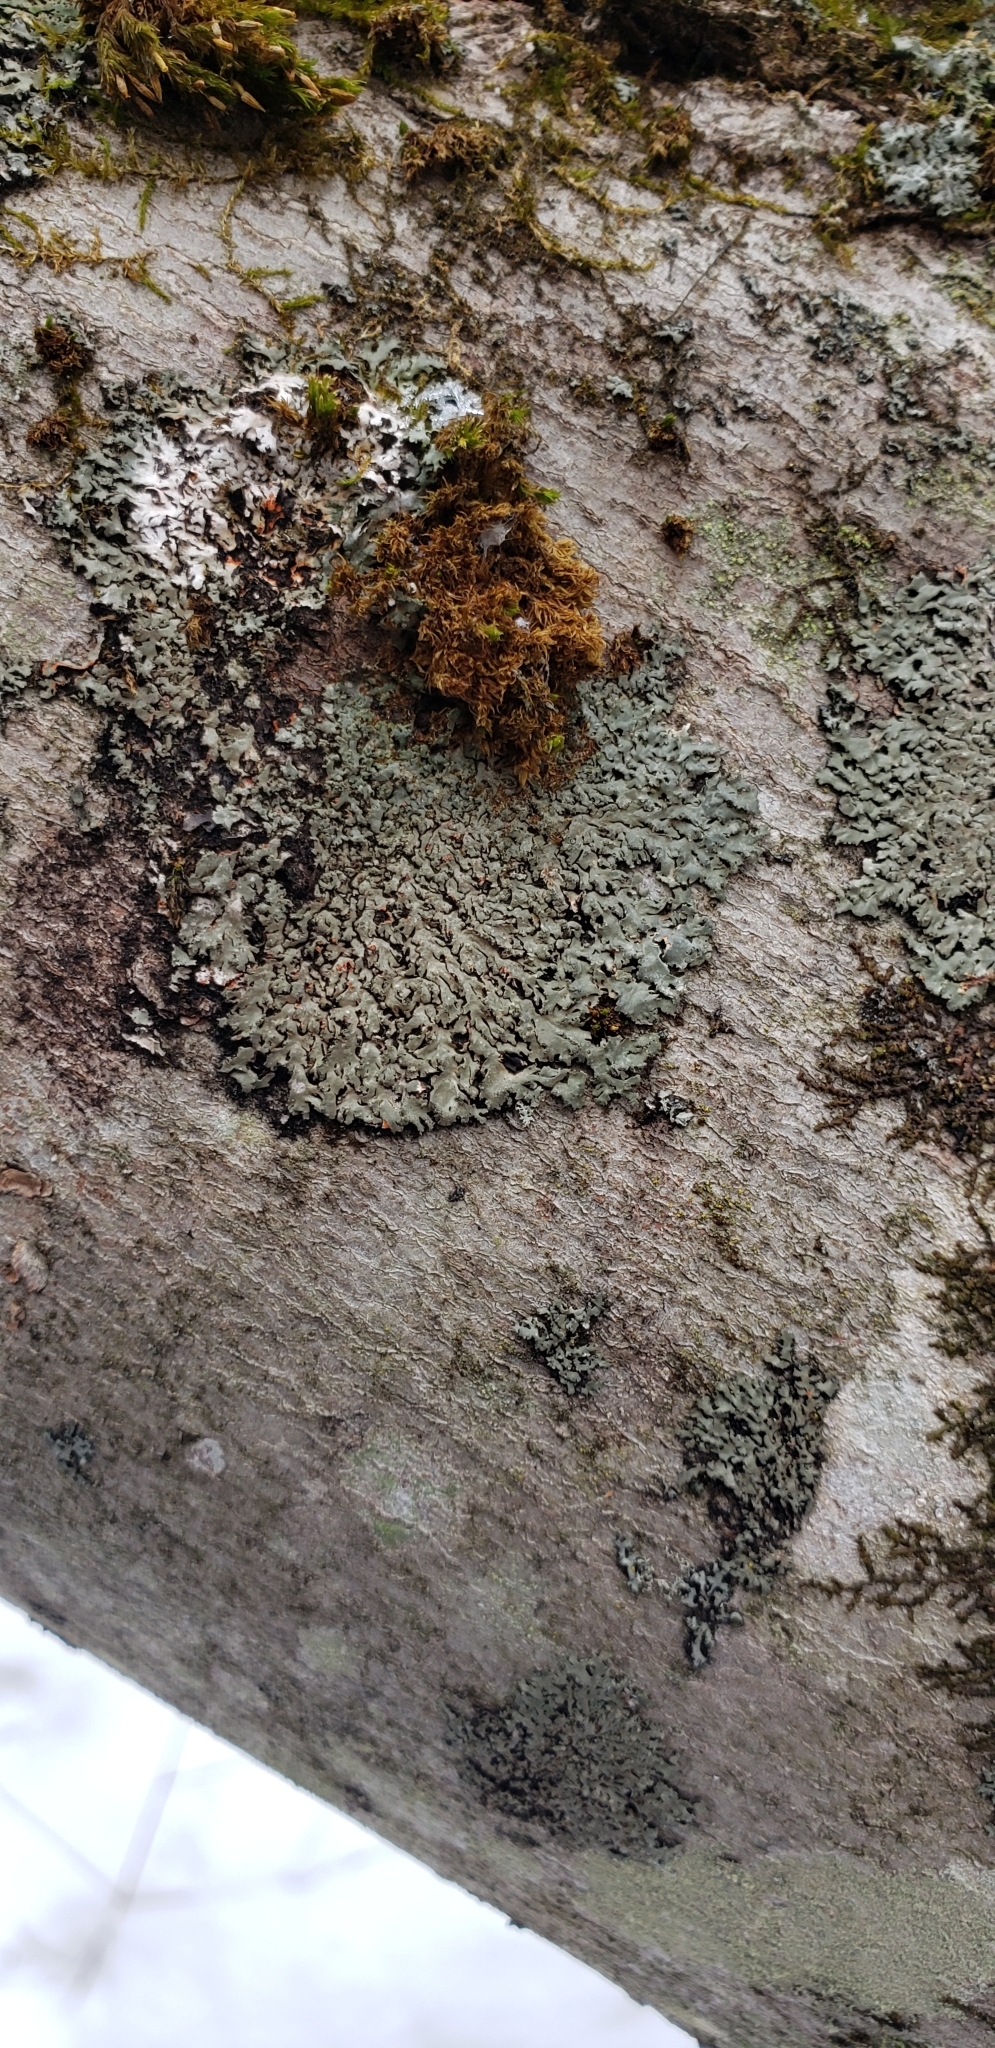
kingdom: Fungi
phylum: Ascomycota
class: Lecanoromycetes
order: Caliciales
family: Physciaceae
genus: Phaeophyscia
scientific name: Phaeophyscia rubropulchra
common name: Orange-cored shadow lichen
